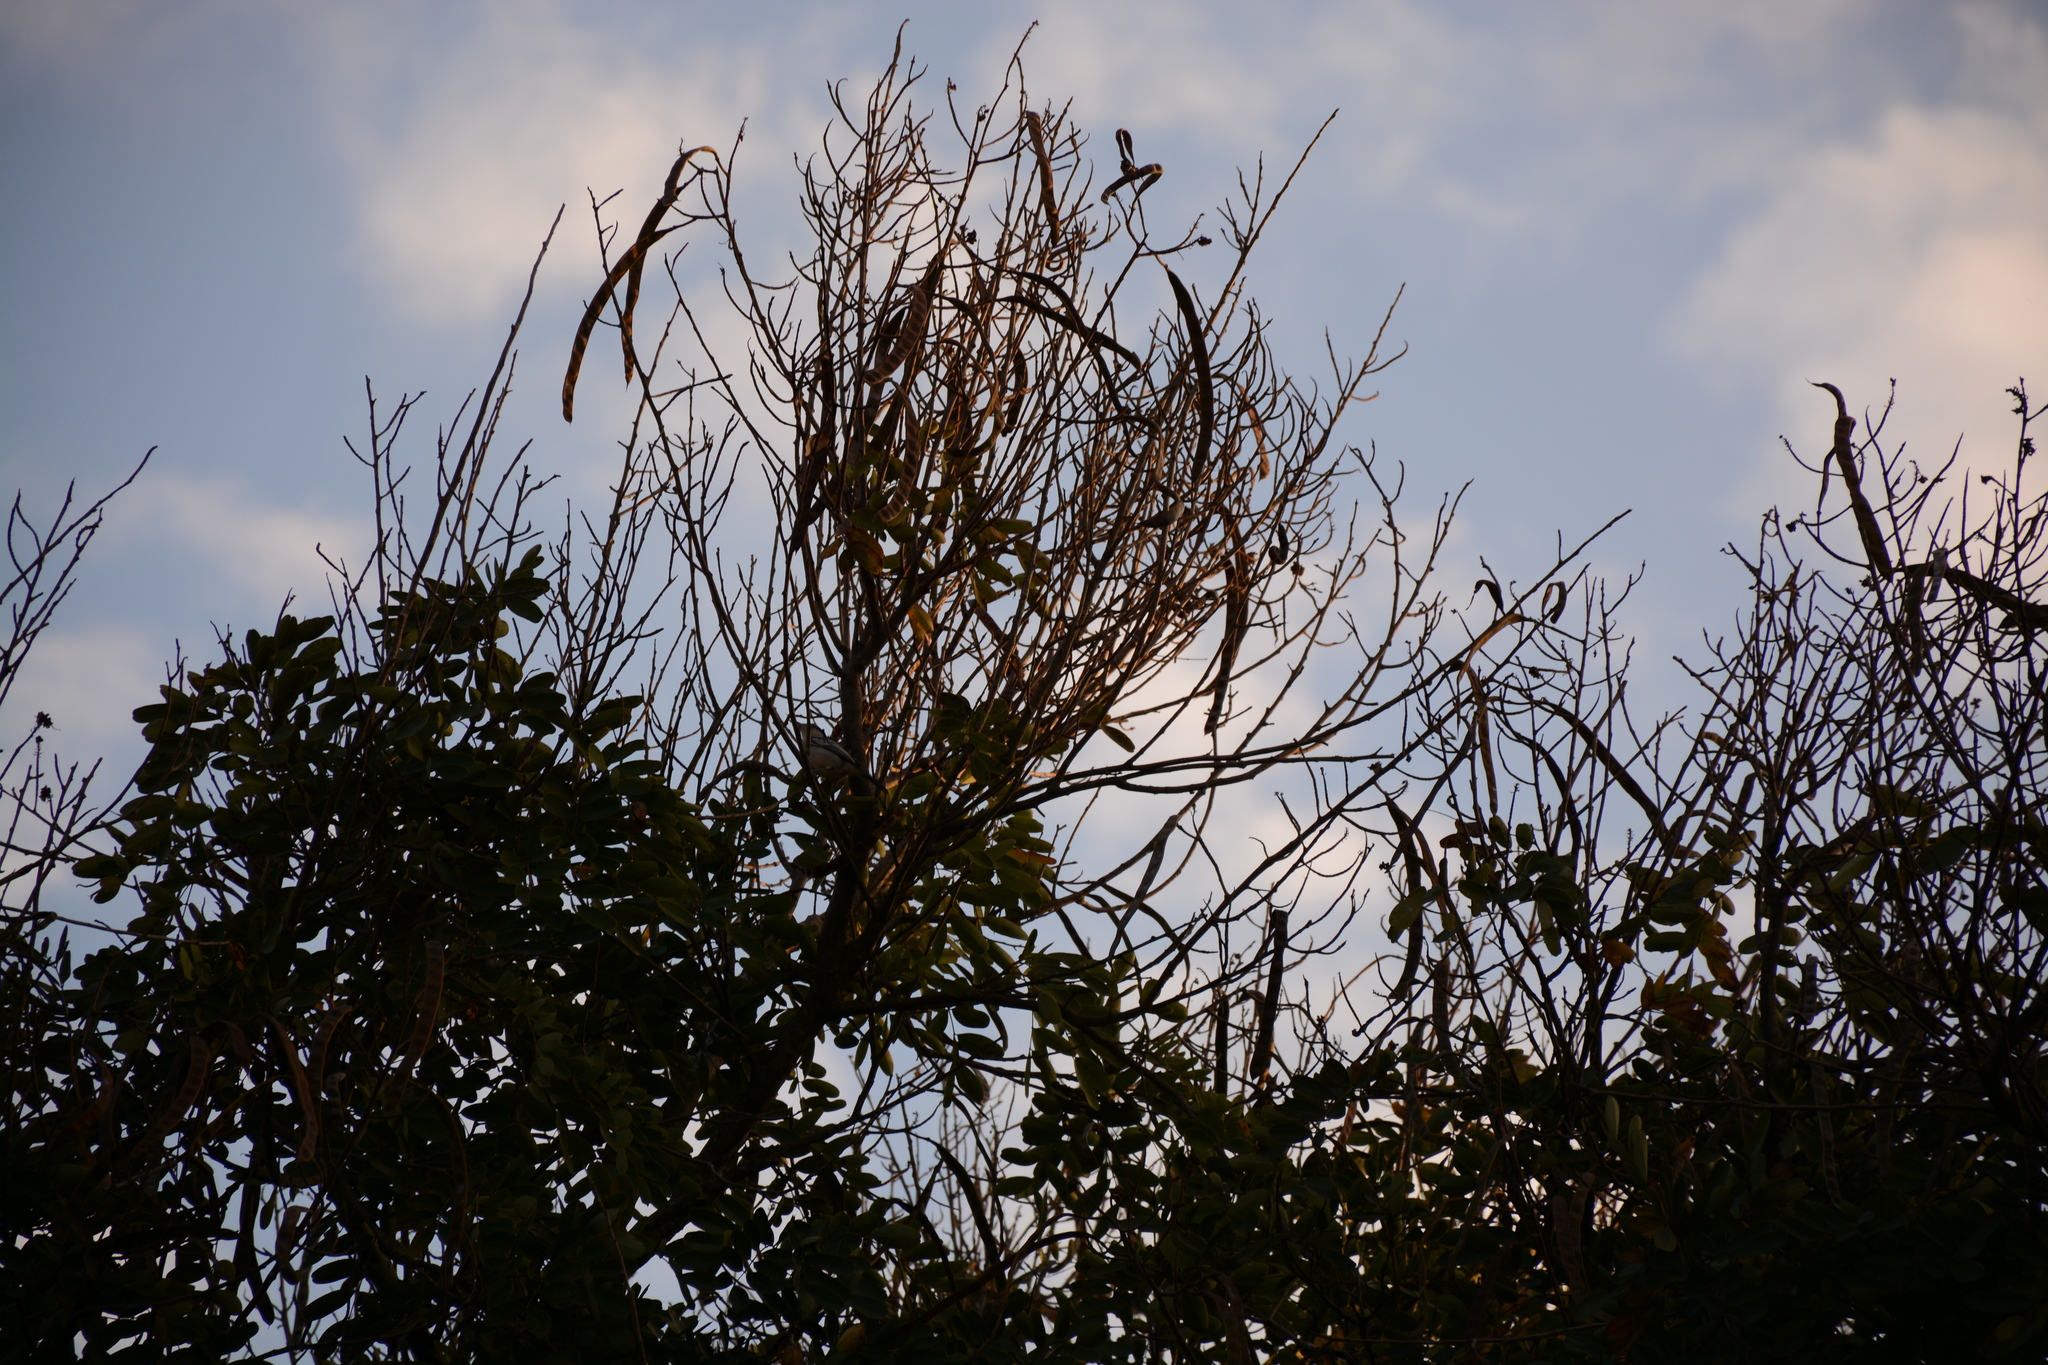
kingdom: Animalia
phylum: Chordata
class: Aves
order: Passeriformes
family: Malaconotidae
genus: Dryoscopus
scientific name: Dryoscopus cubla
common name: Black-backed puffback
